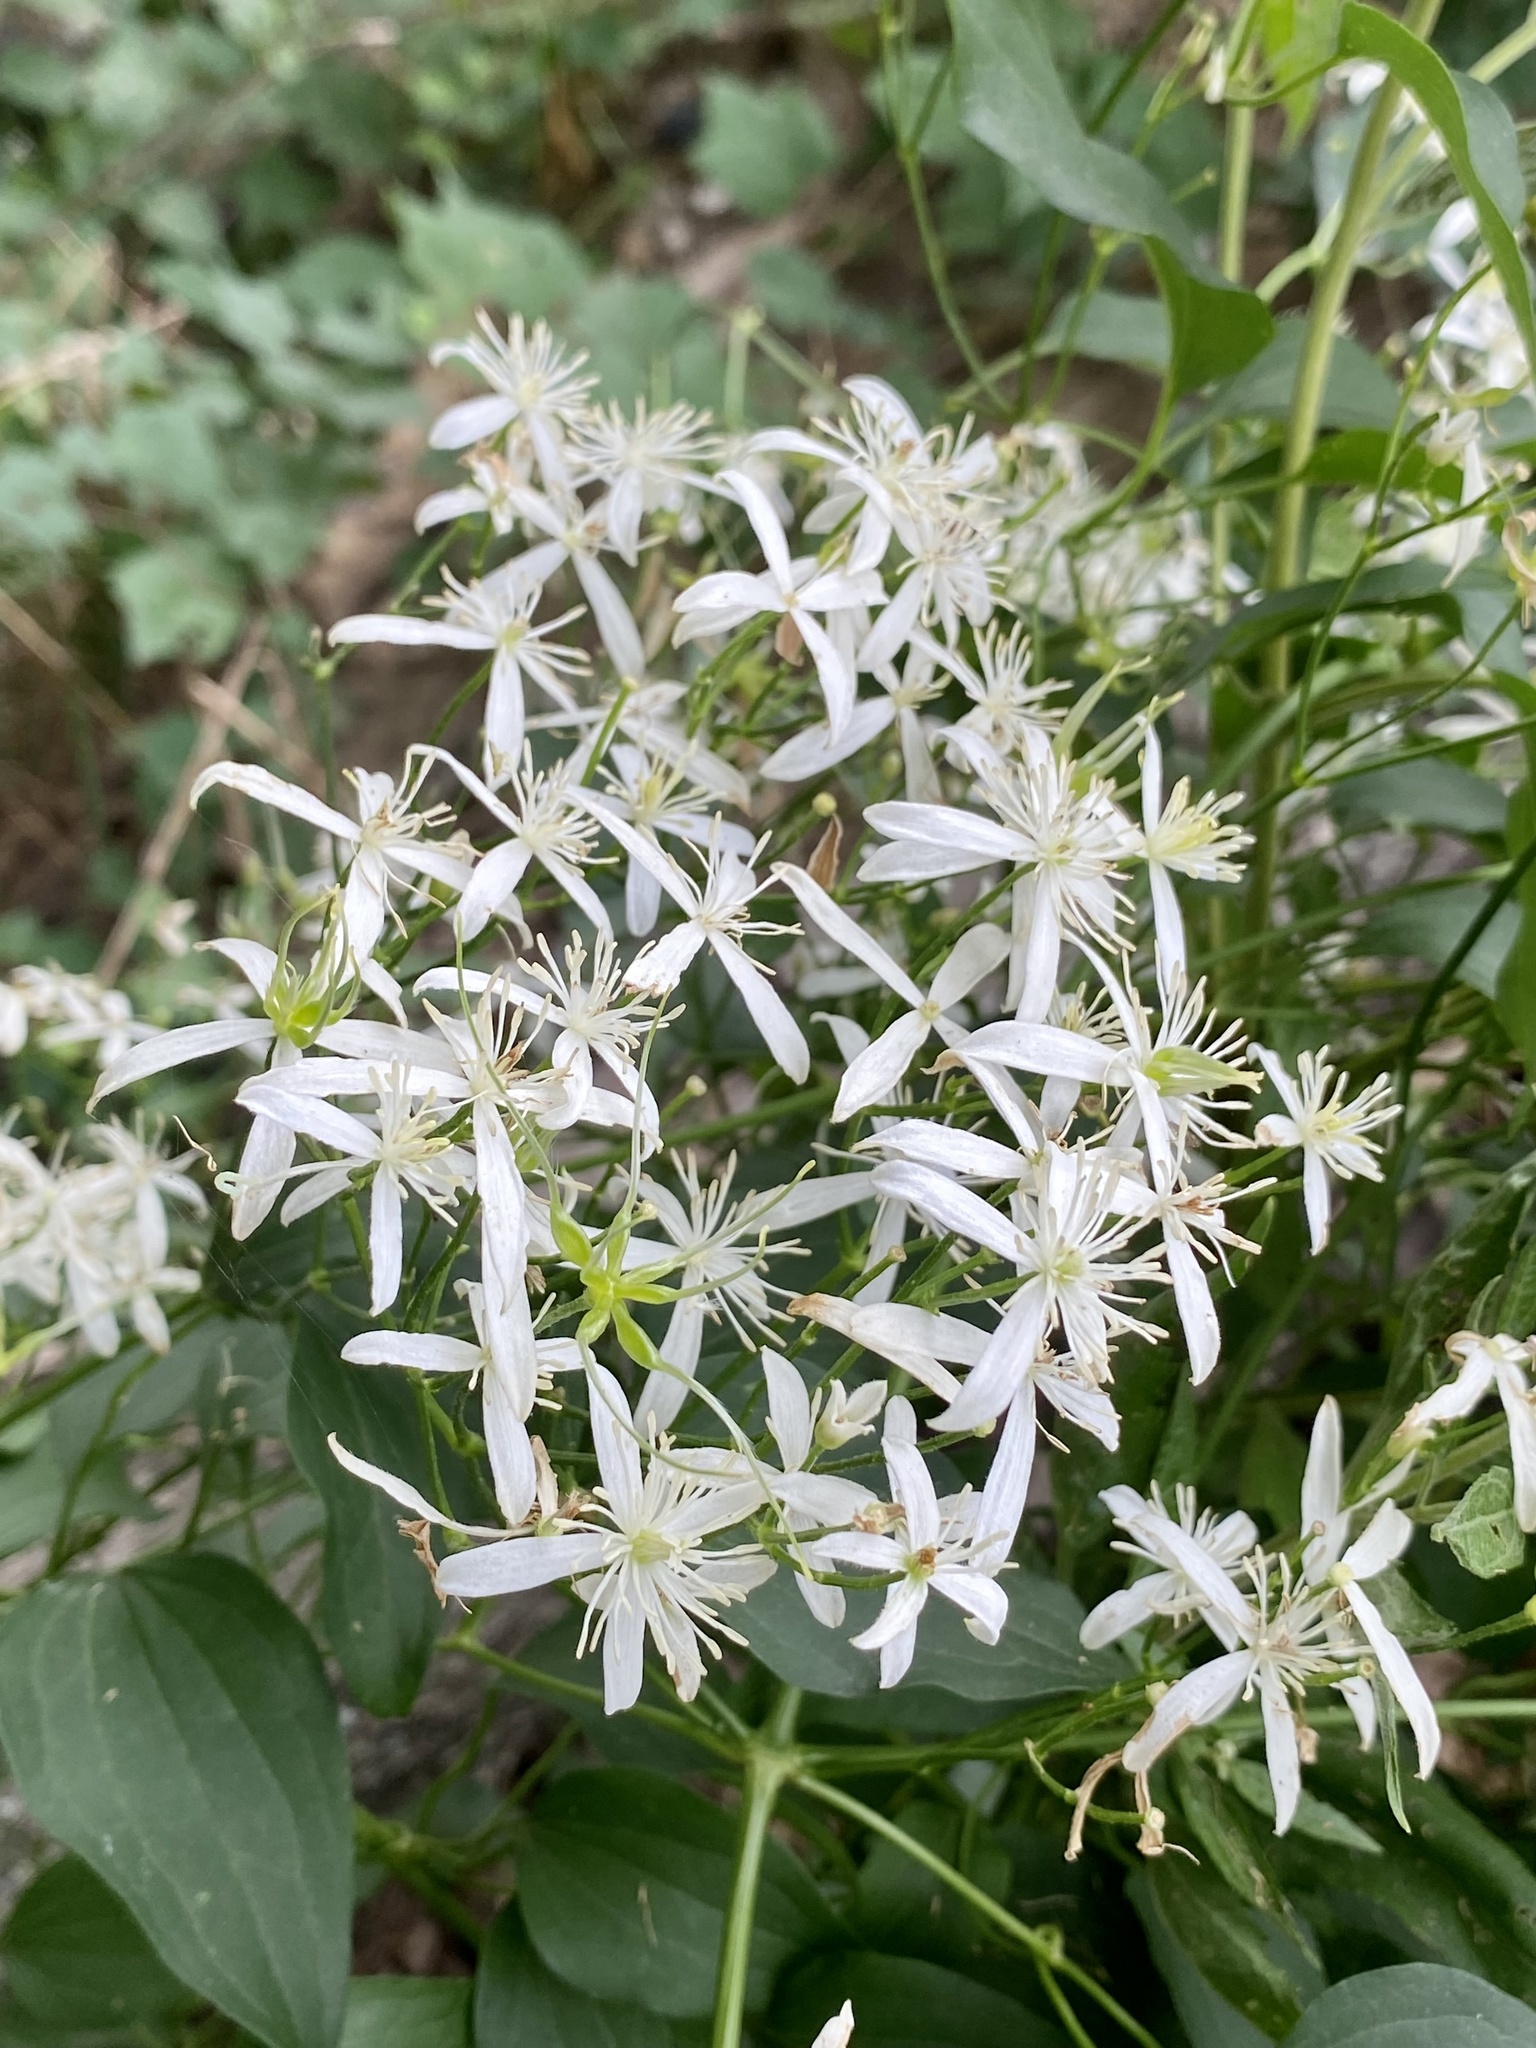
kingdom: Plantae
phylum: Tracheophyta
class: Magnoliopsida
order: Ranunculales
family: Ranunculaceae
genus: Clematis
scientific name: Clematis terniflora
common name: Sweet autumn clematis
